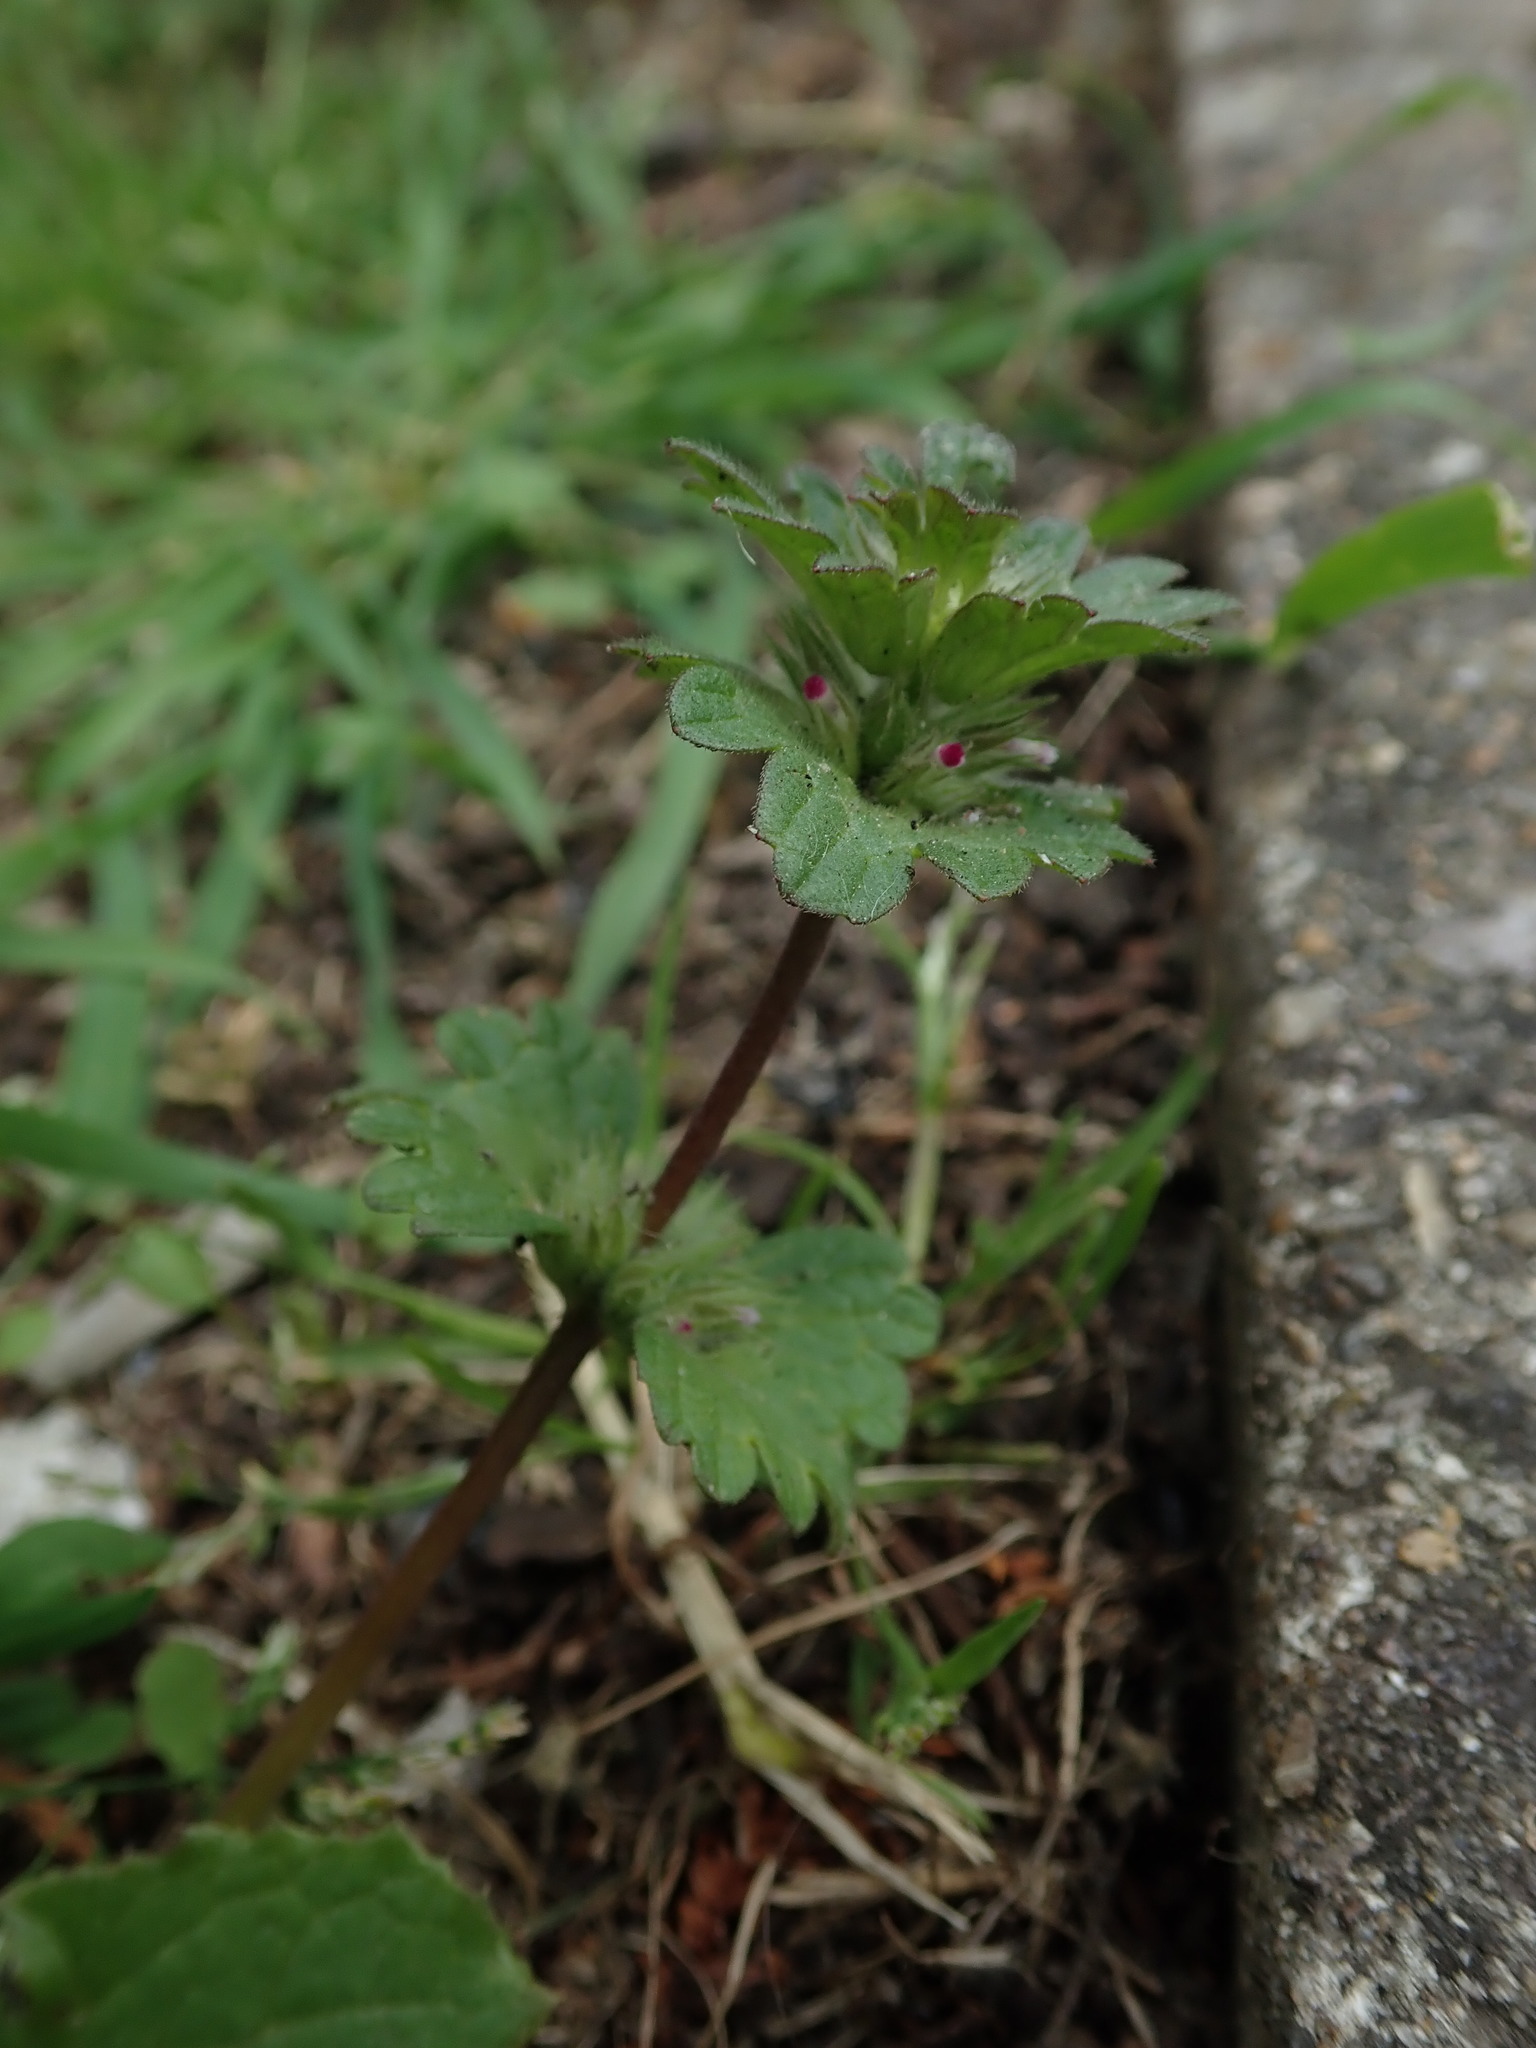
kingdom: Plantae
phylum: Tracheophyta
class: Magnoliopsida
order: Lamiales
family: Lamiaceae
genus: Lamium
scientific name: Lamium amplexicaule
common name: Henbit dead-nettle
